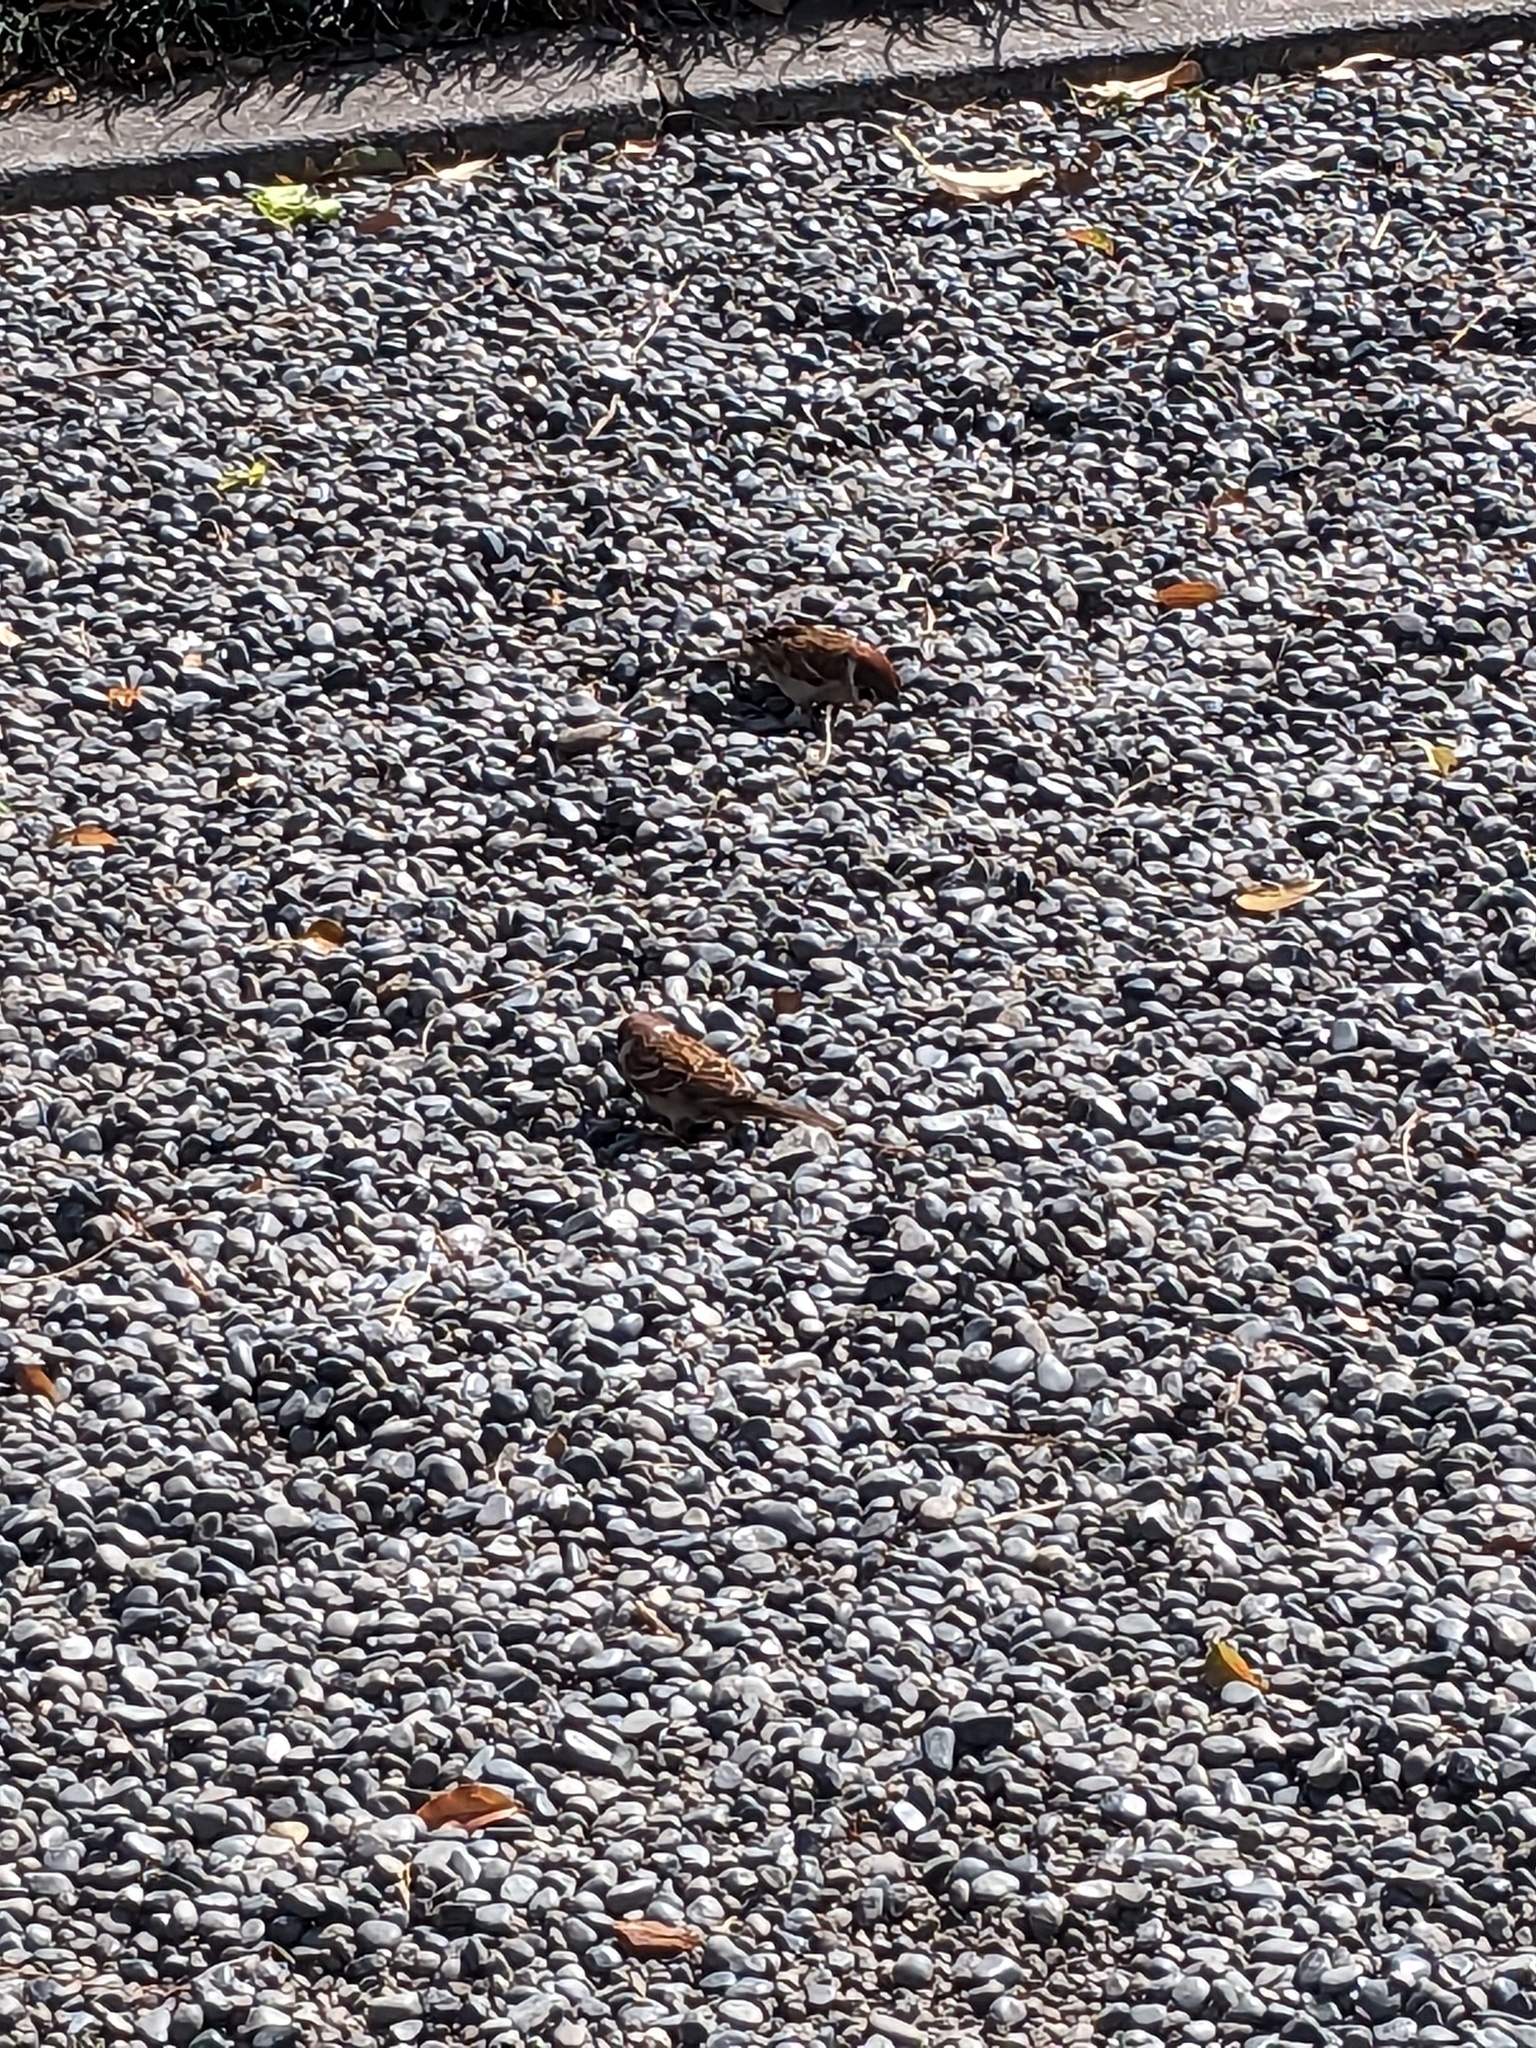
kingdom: Animalia
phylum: Chordata
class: Aves
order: Passeriformes
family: Passeridae
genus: Passer
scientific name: Passer montanus
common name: Eurasian tree sparrow
